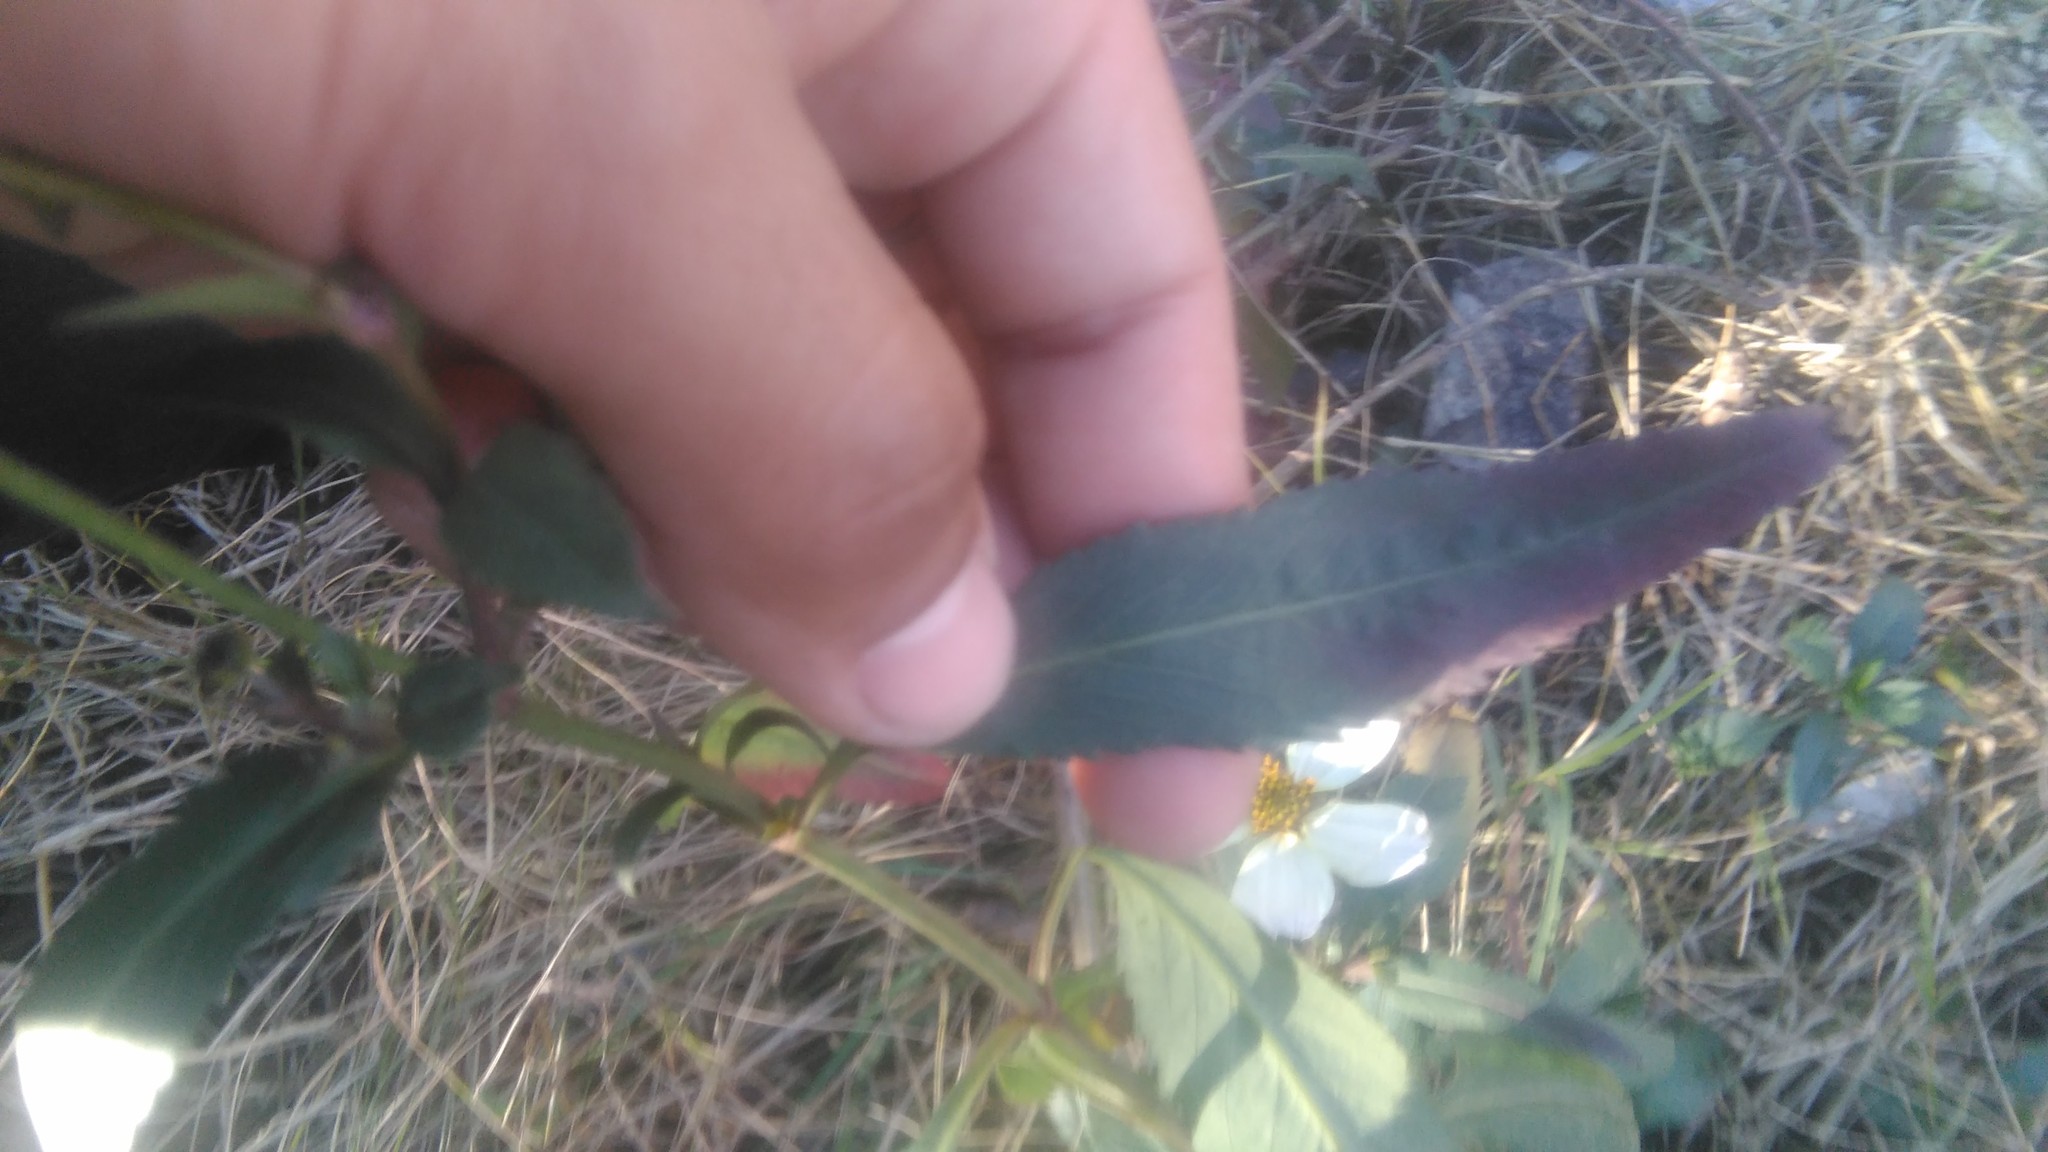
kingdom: Plantae
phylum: Tracheophyta
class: Magnoliopsida
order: Asterales
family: Asteraceae
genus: Bidens
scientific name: Bidens aurea
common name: Arizona beggar-ticks
